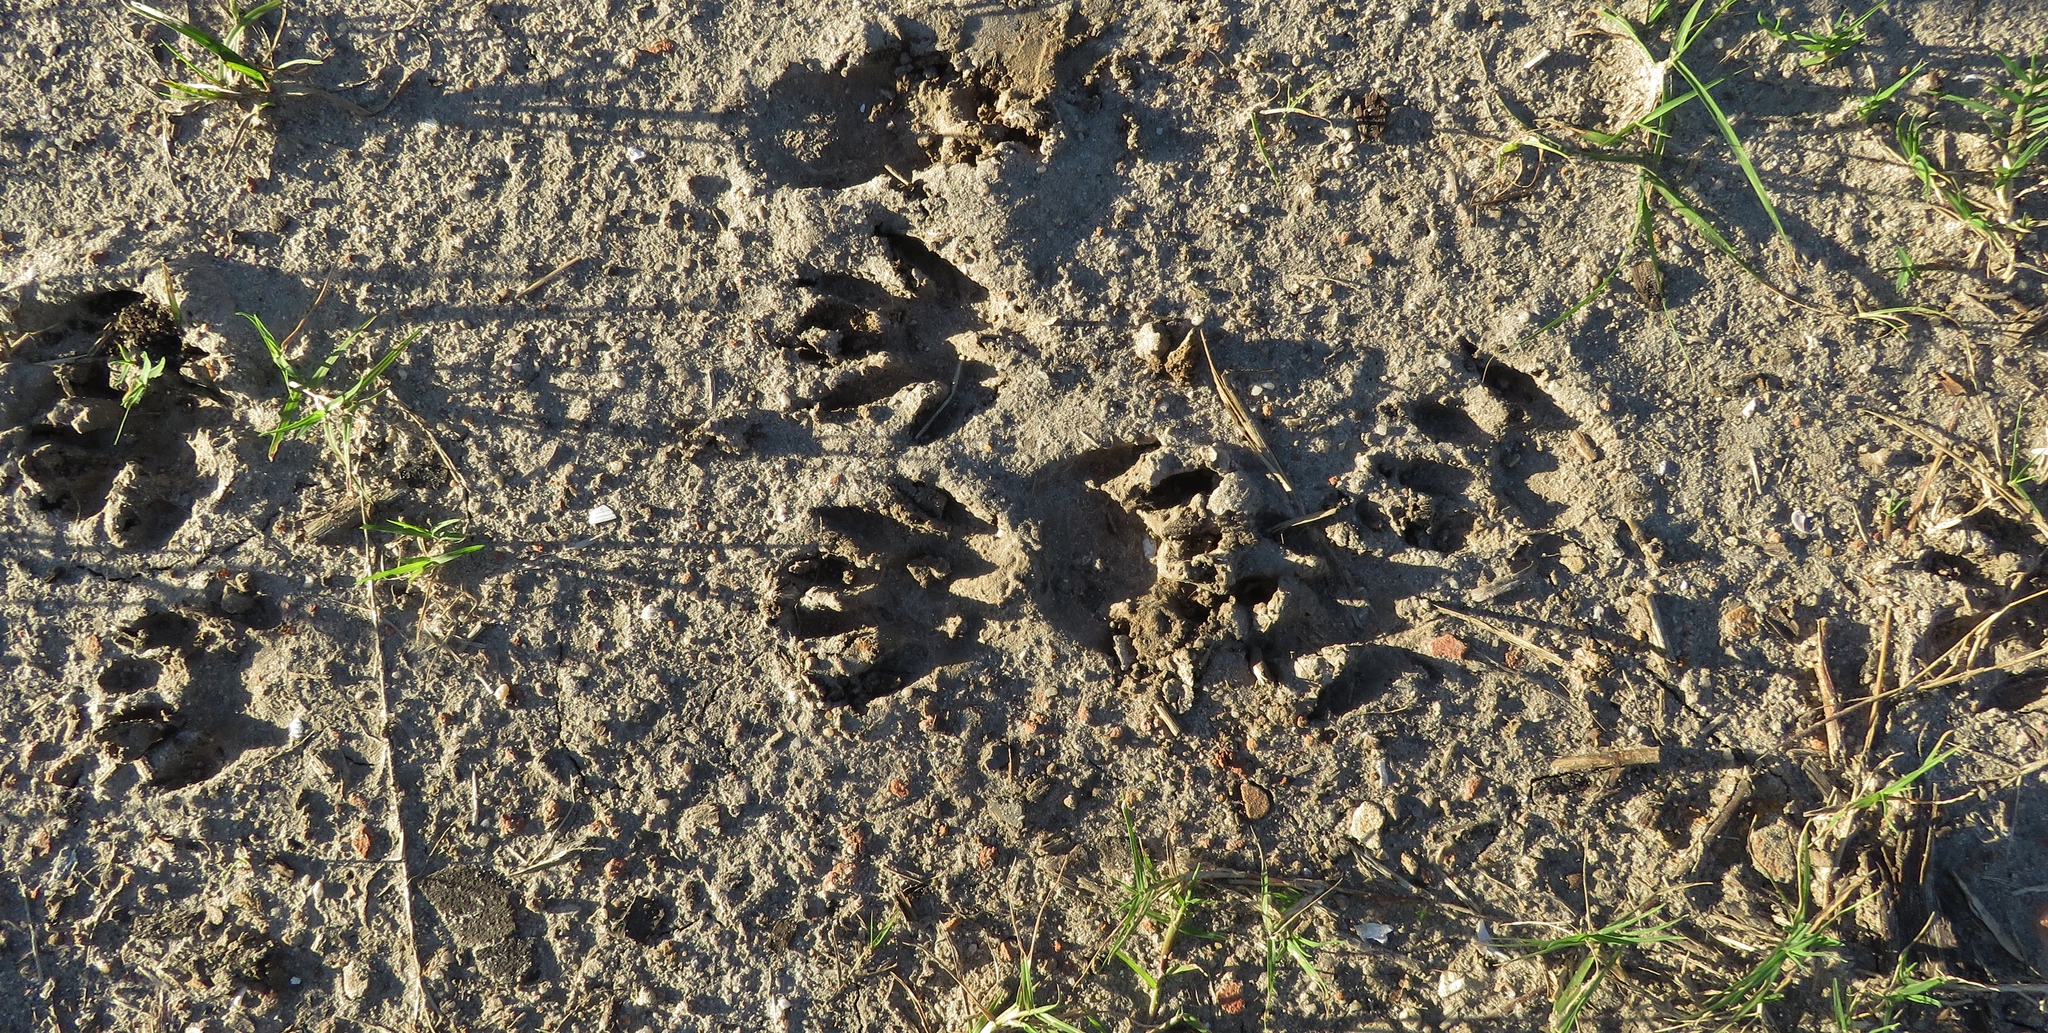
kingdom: Animalia
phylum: Chordata
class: Mammalia
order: Carnivora
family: Procyonidae
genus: Procyon
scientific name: Procyon lotor
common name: Raccoon
